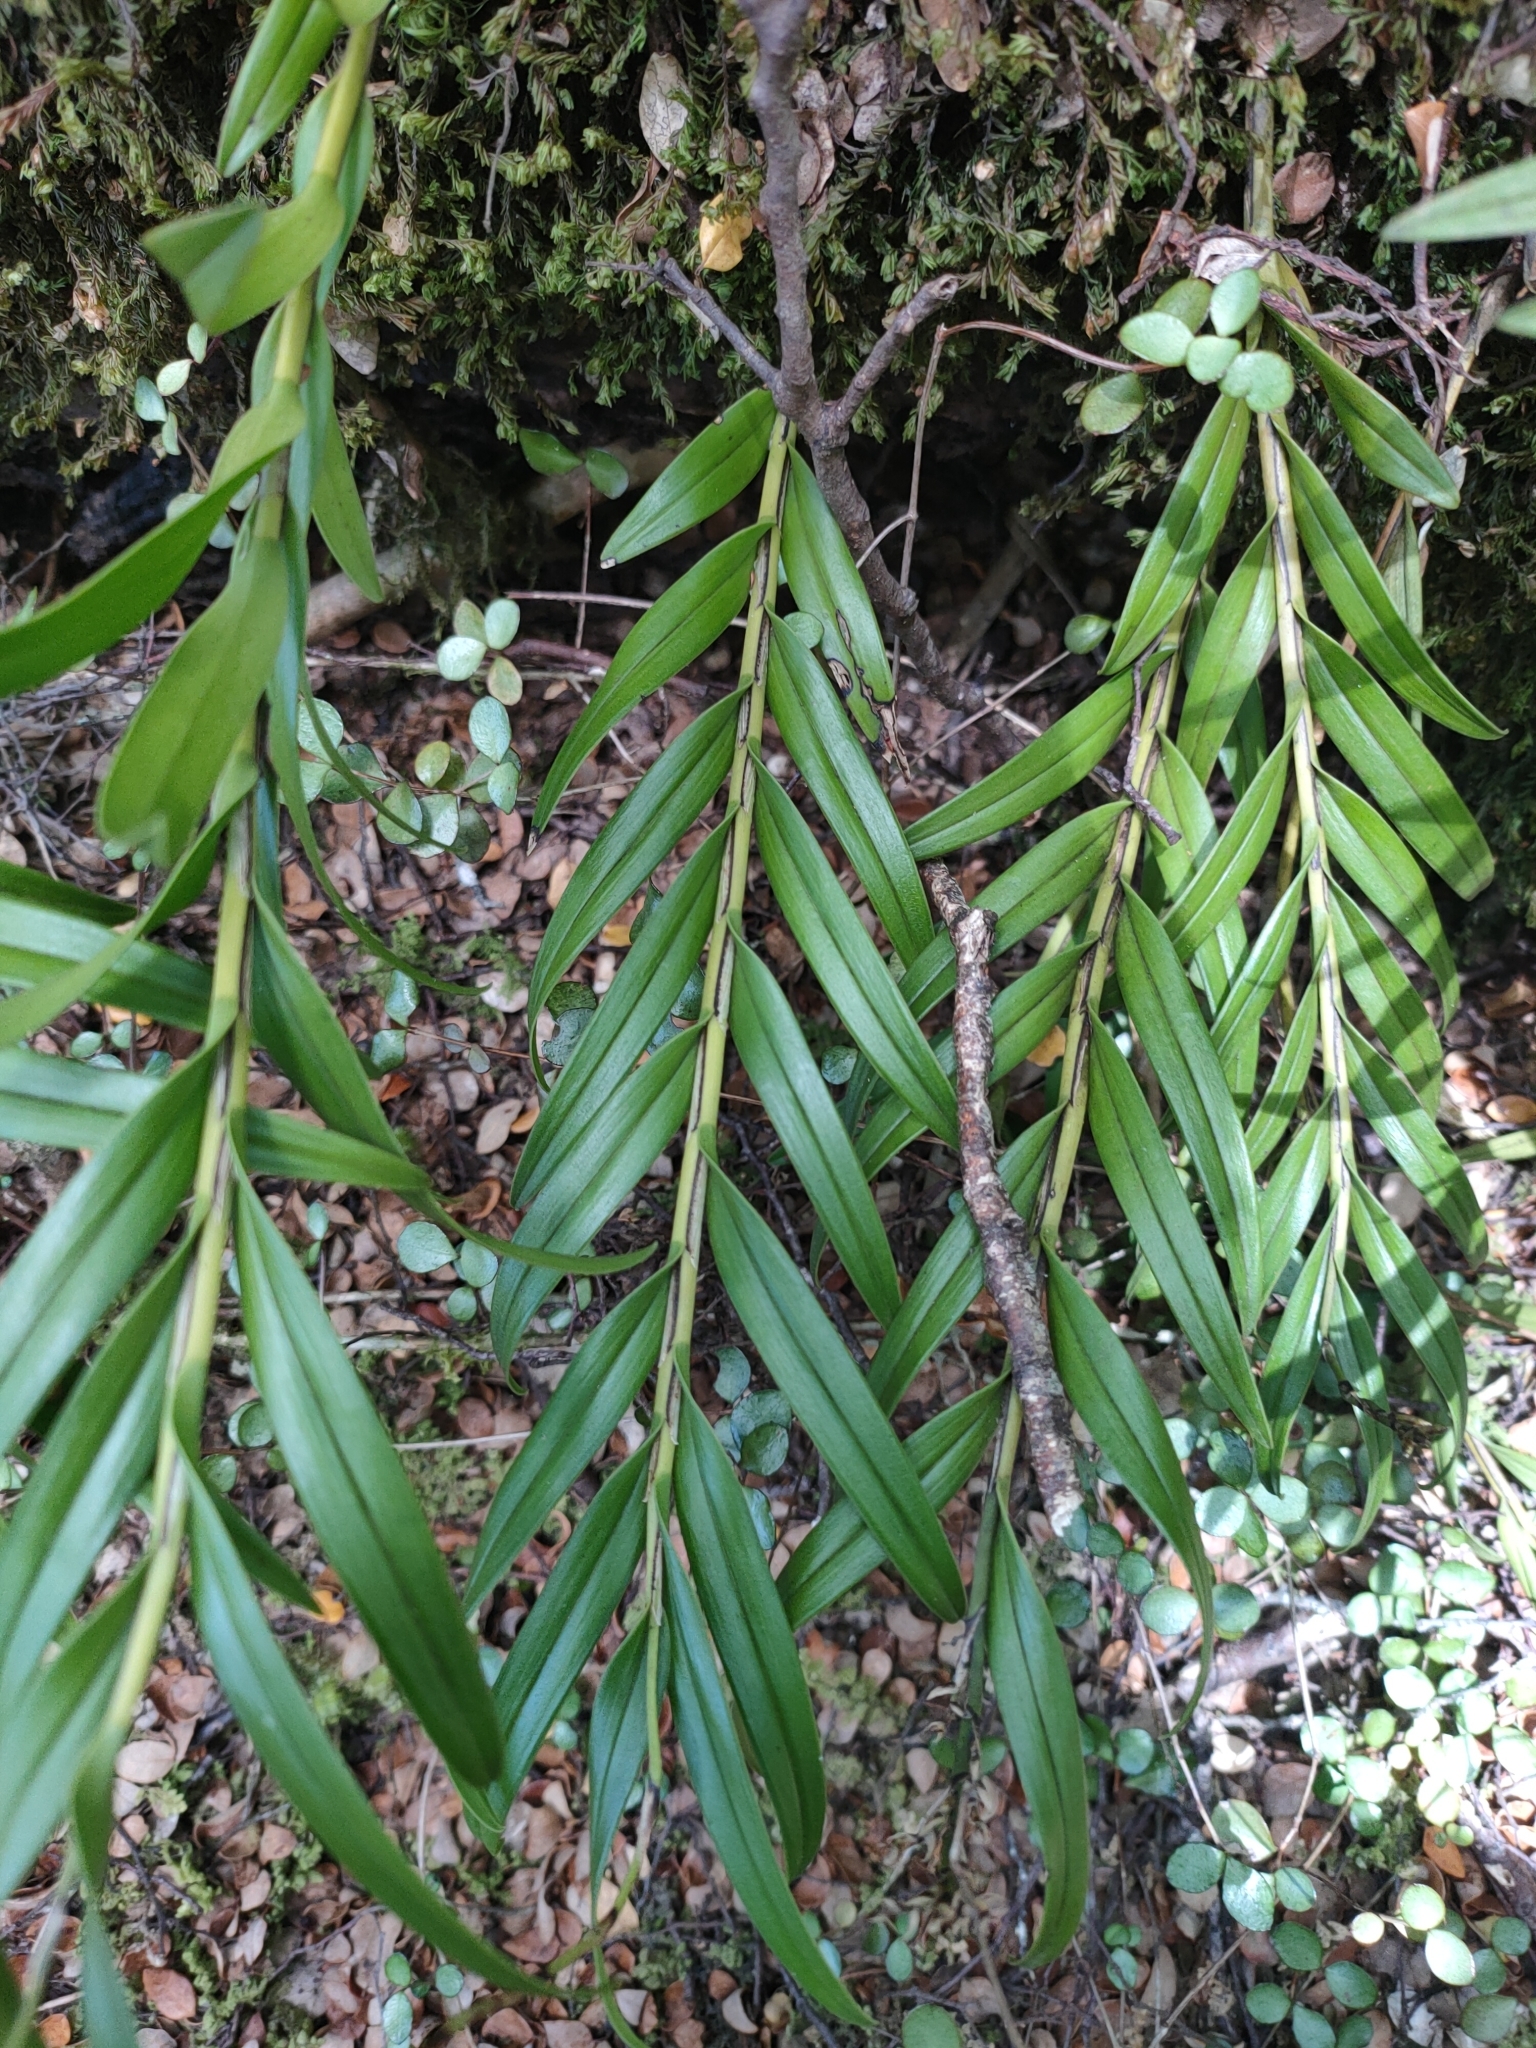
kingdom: Plantae
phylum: Tracheophyta
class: Liliopsida
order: Asparagales
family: Orchidaceae
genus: Earina
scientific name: Earina autumnalis
